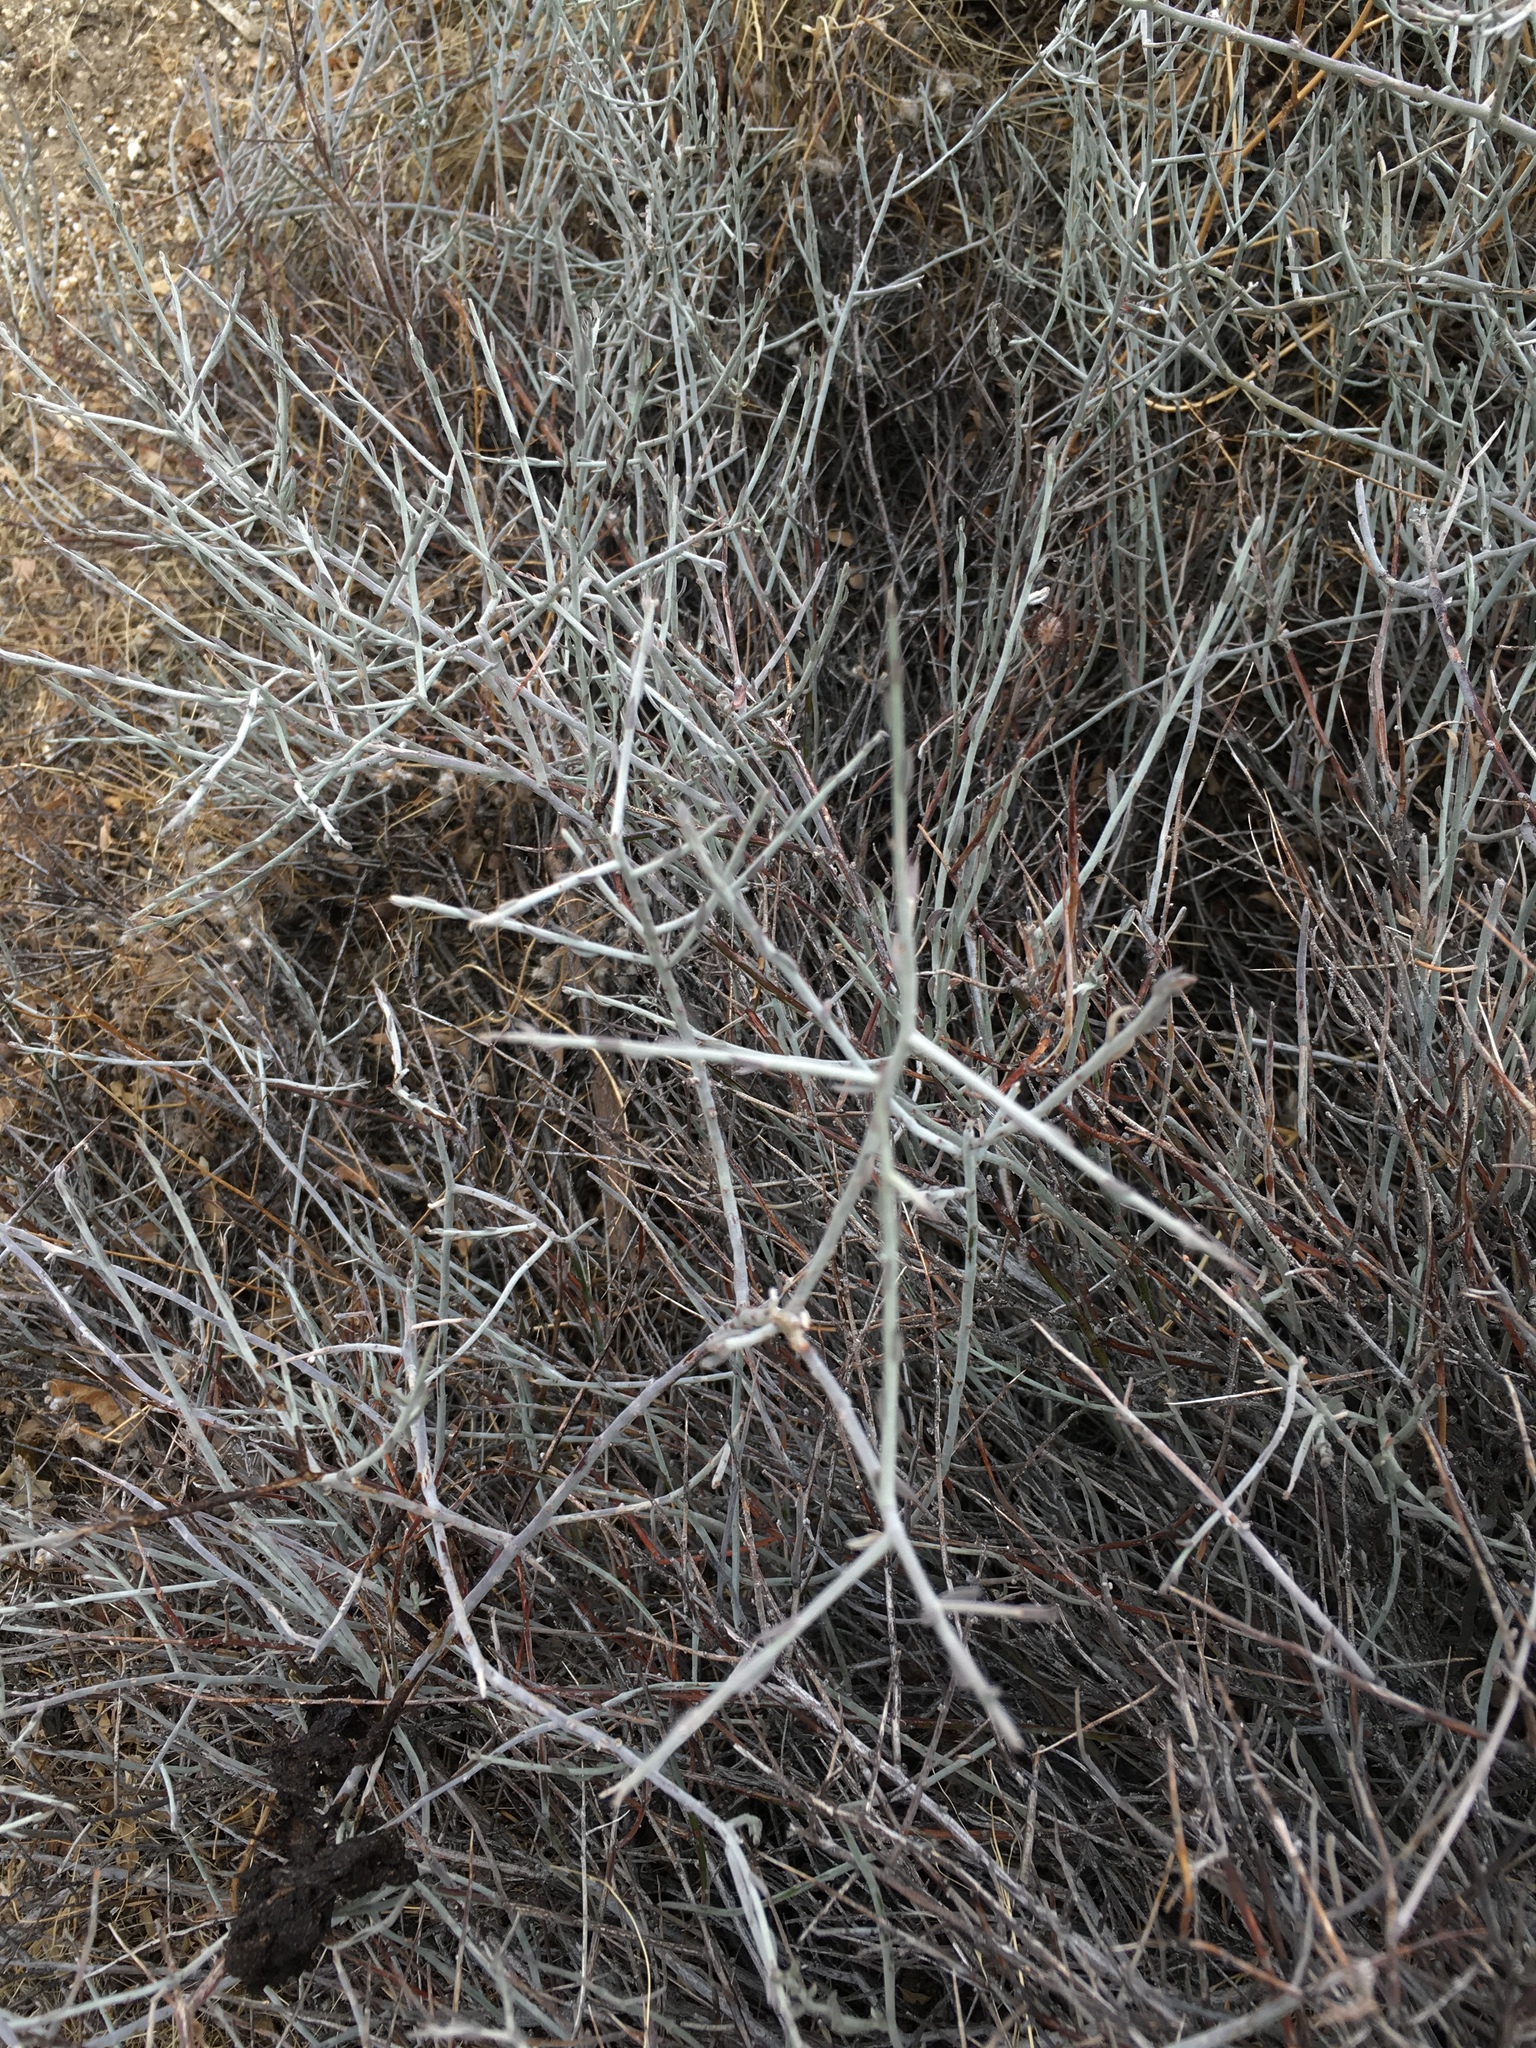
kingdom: Plantae
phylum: Tracheophyta
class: Magnoliopsida
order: Zygophyllales
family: Krameriaceae
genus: Krameria
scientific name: Krameria bicolor
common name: White ratany
